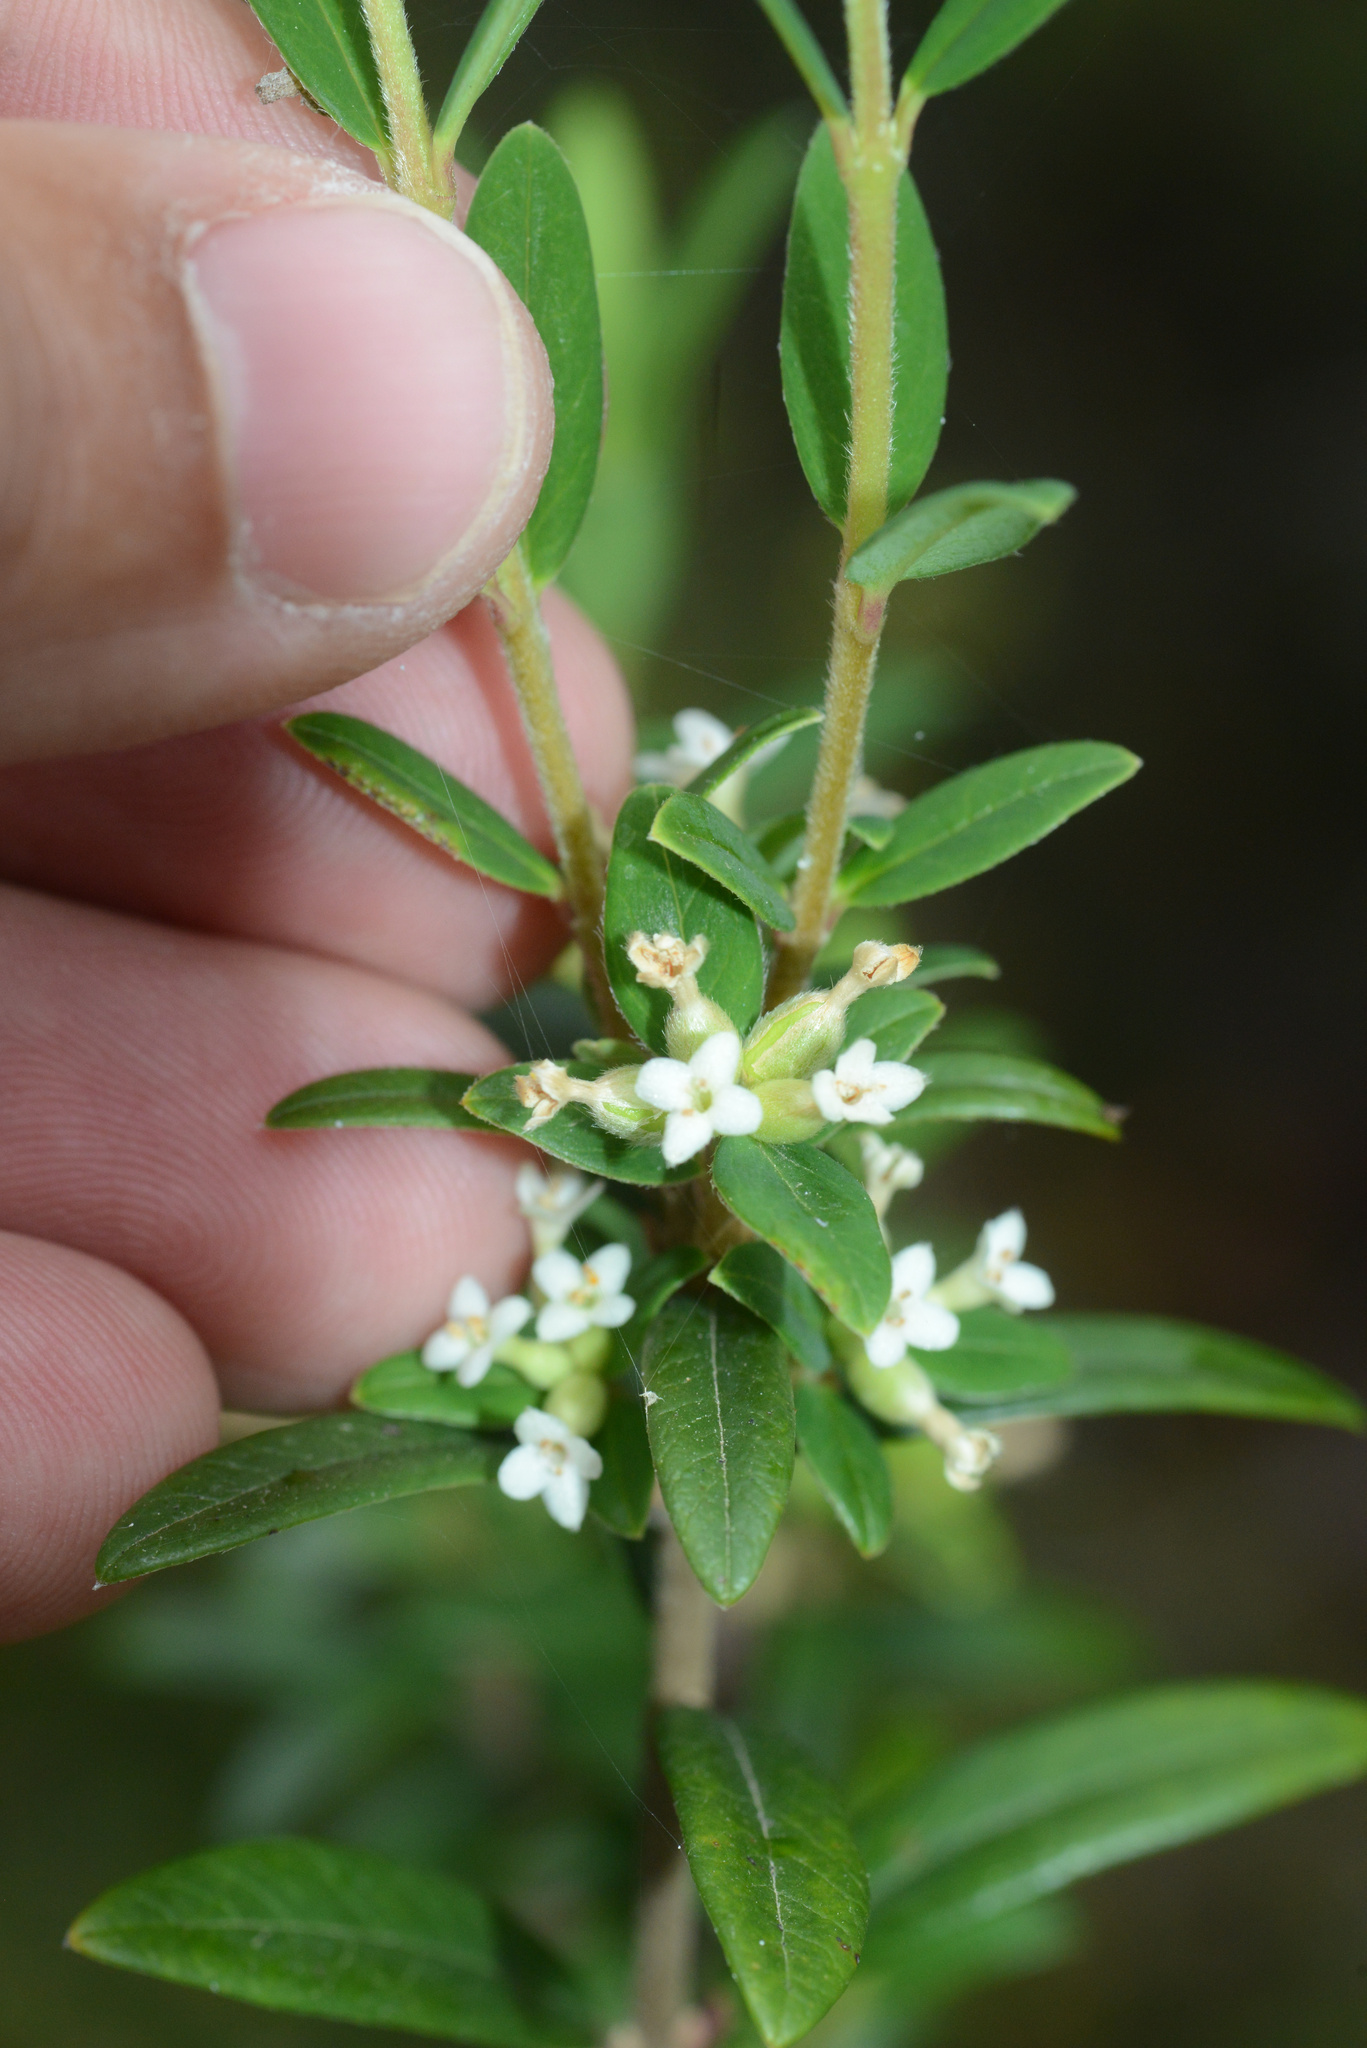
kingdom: Plantae
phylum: Tracheophyta
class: Magnoliopsida
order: Malvales
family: Thymelaeaceae
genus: Pimelea
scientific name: Pimelea drupacea
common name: Cherry riceflower
